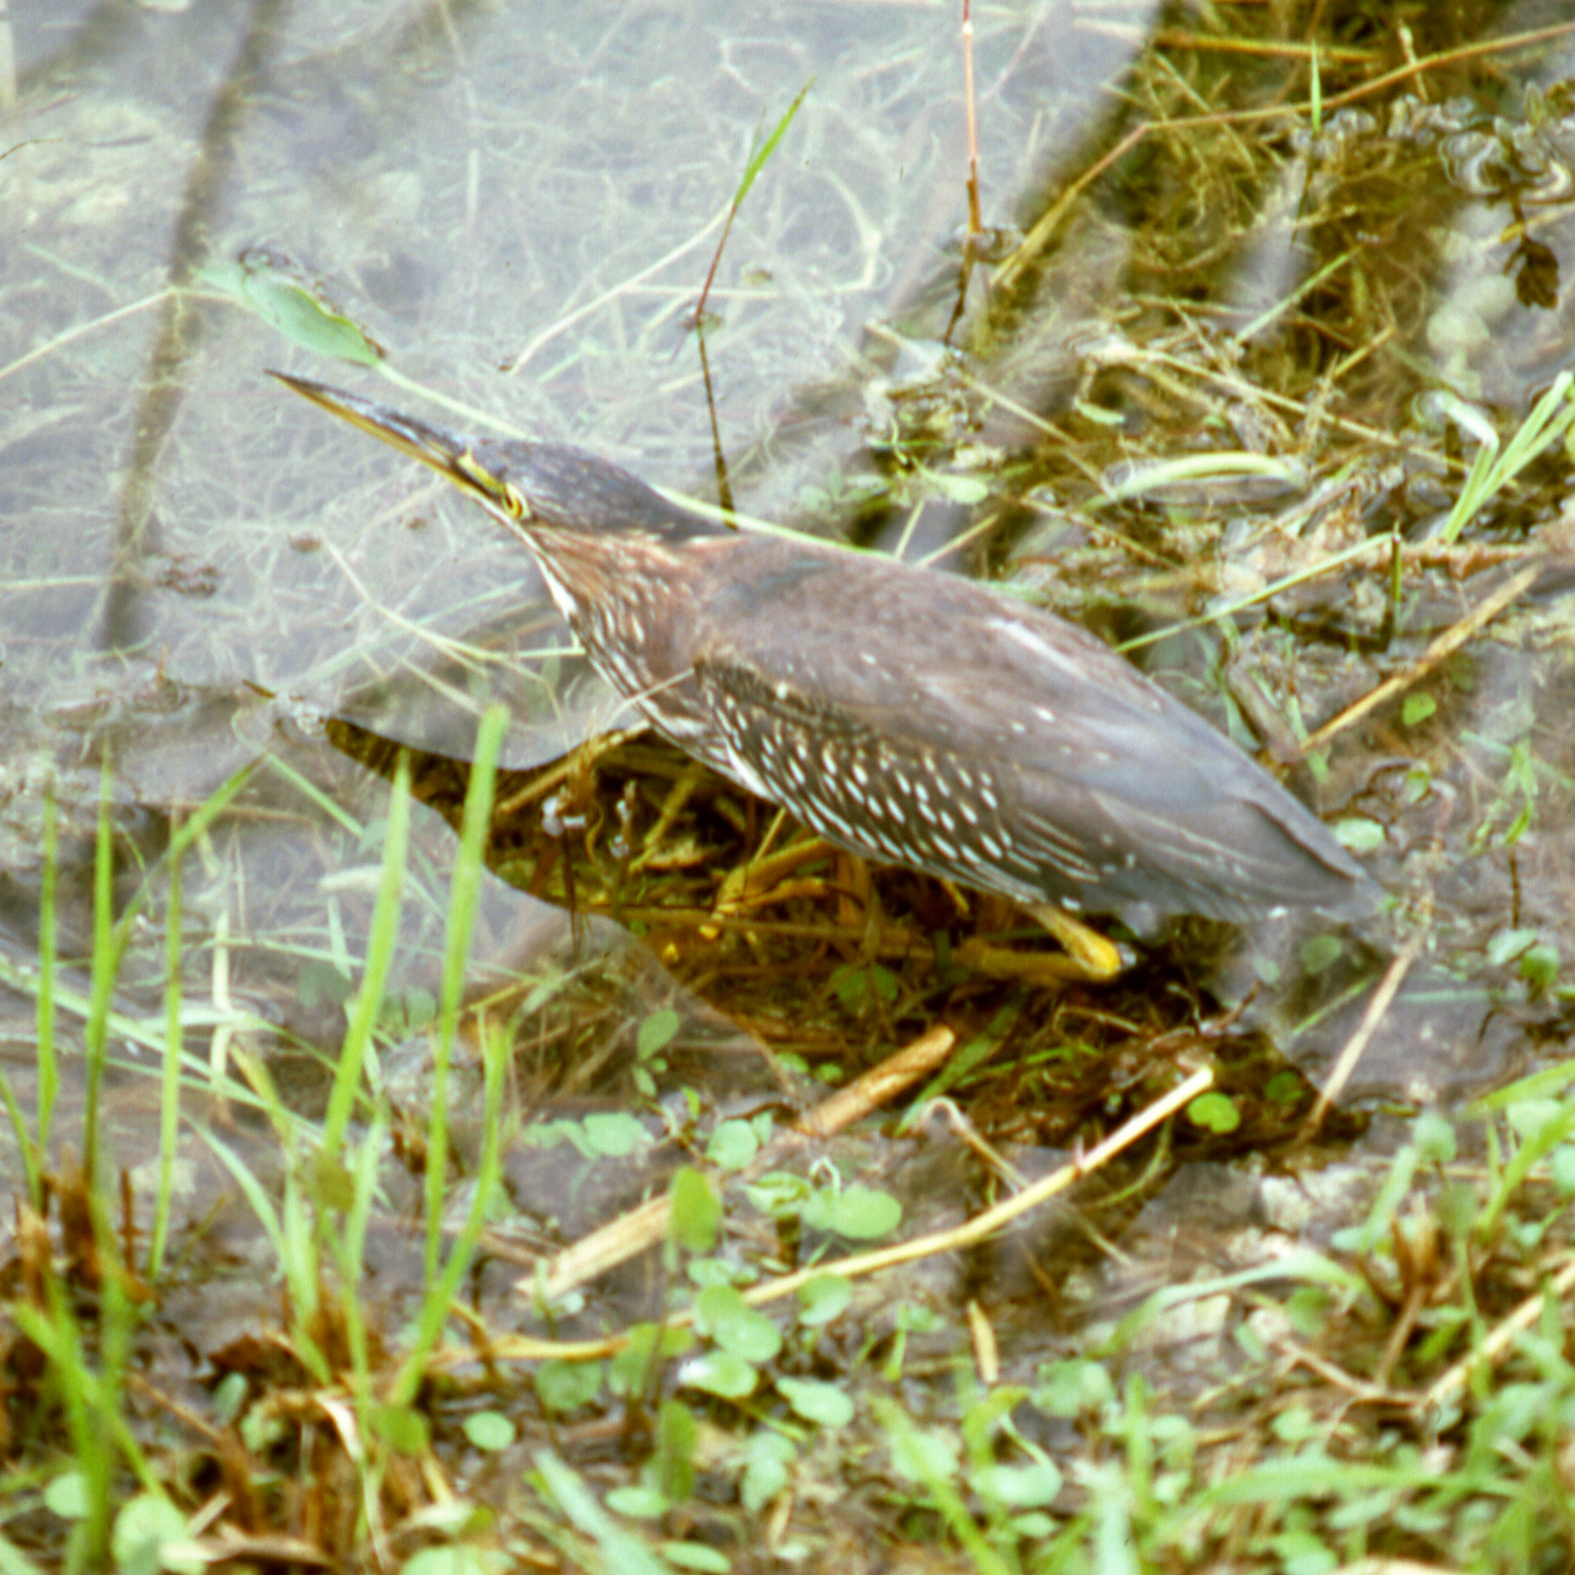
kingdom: Animalia
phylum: Chordata
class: Aves
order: Pelecaniformes
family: Ardeidae
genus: Butorides
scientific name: Butorides virescens
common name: Green heron
